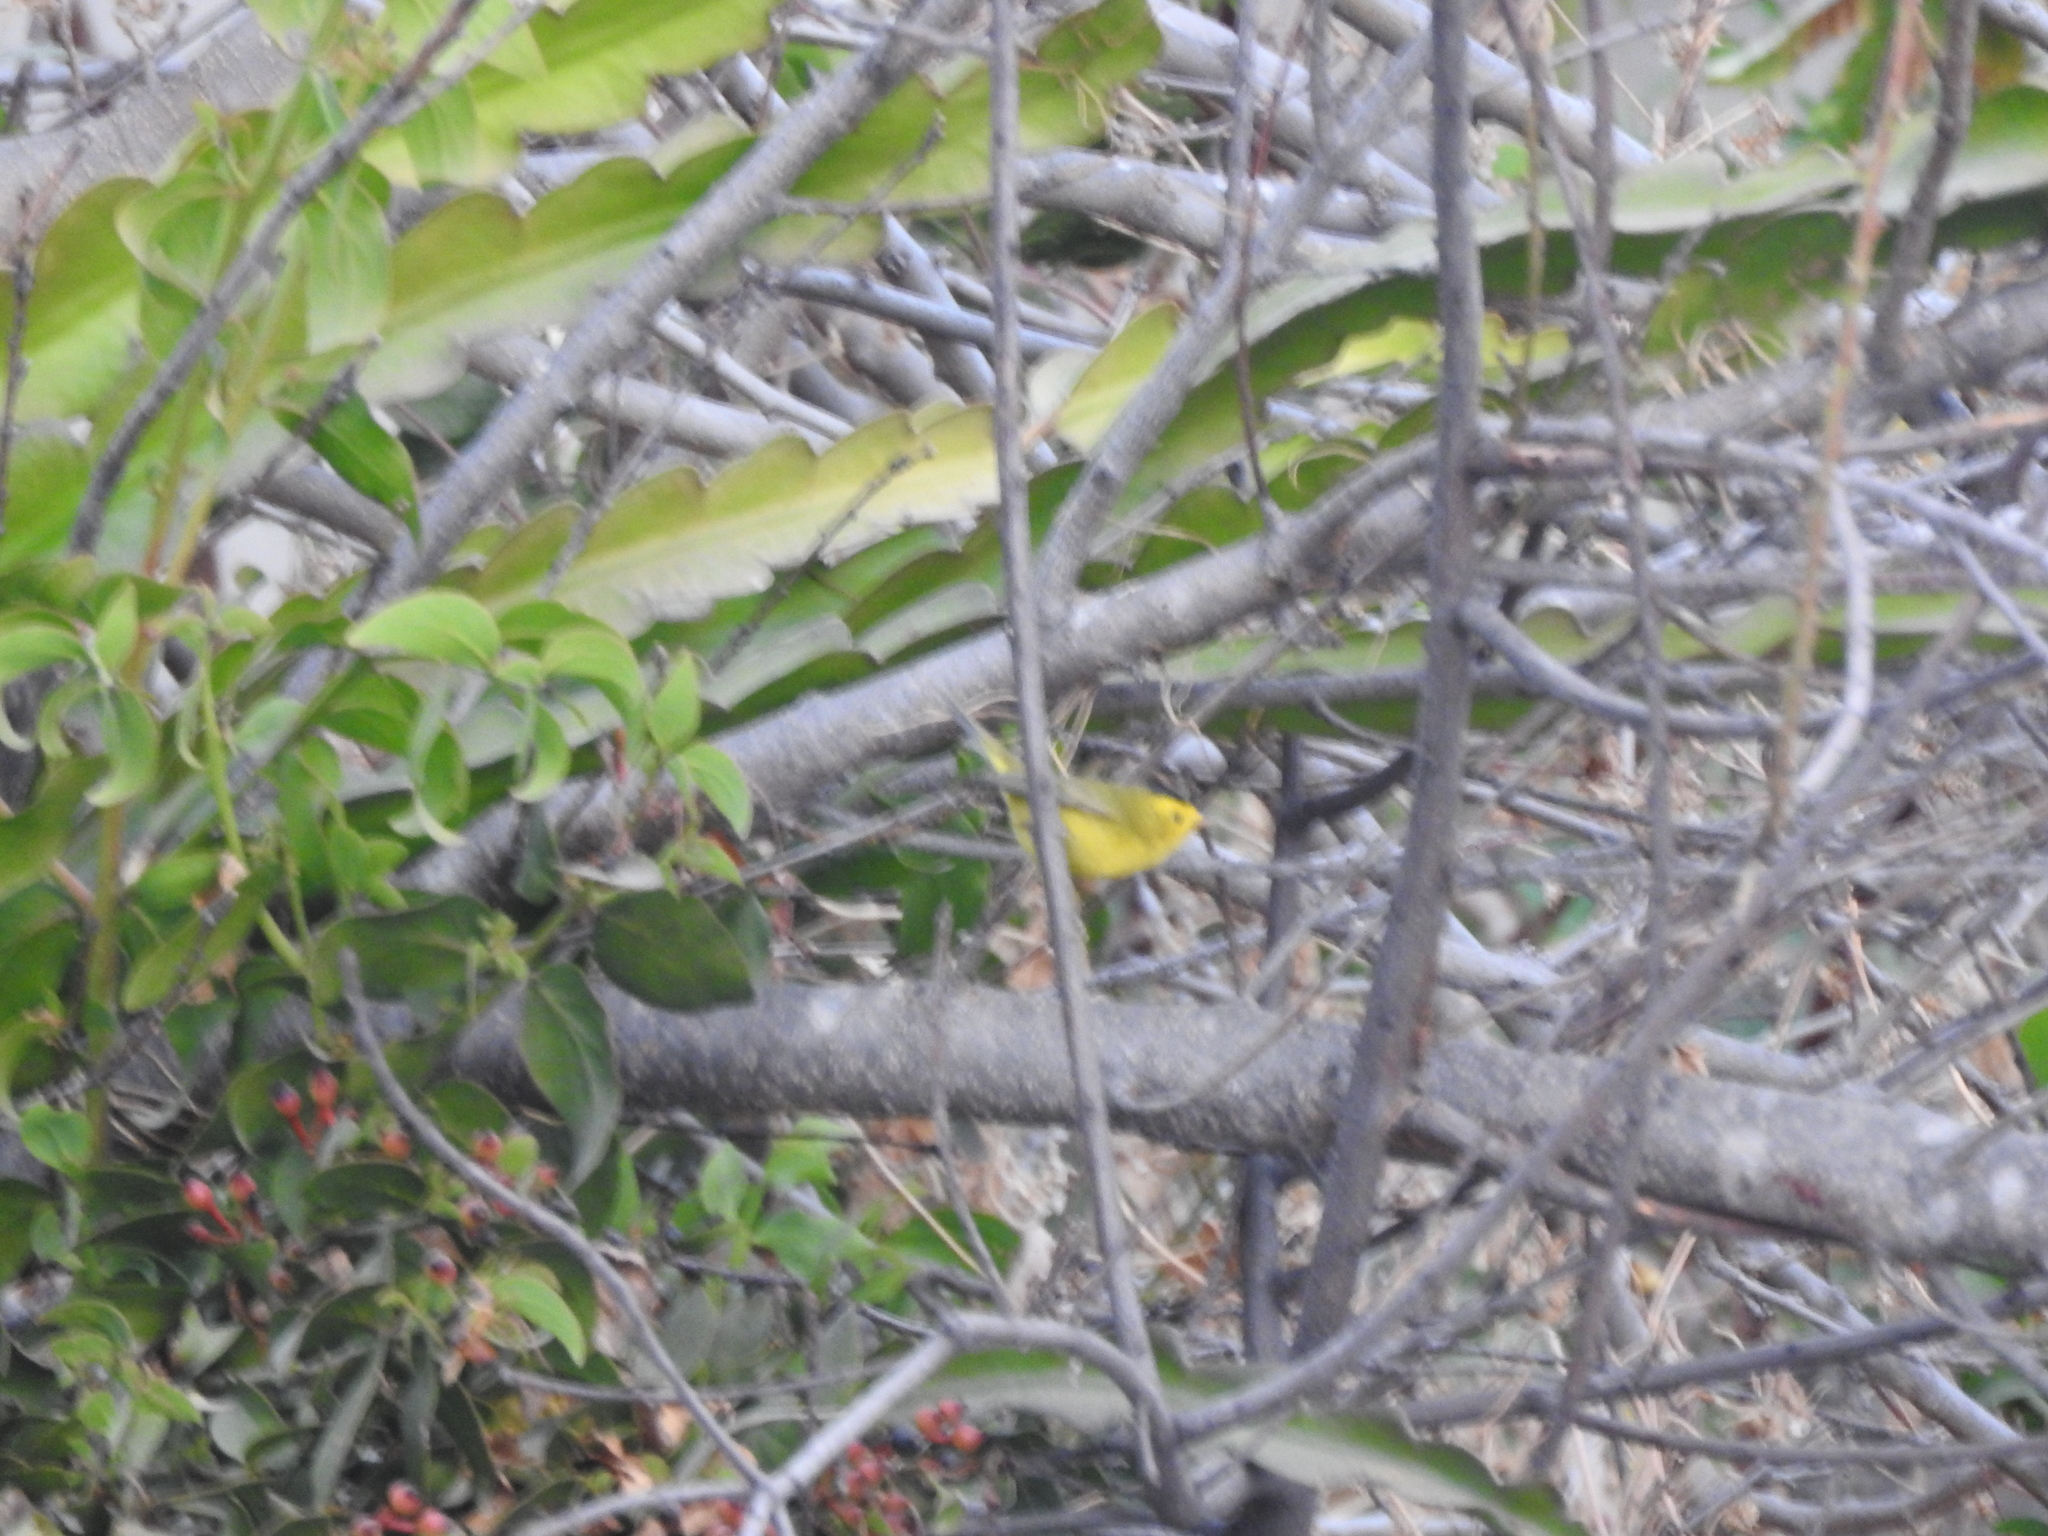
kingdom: Animalia
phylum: Chordata
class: Aves
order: Passeriformes
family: Parulidae
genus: Cardellina
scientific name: Cardellina pusilla
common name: Wilson's warbler
